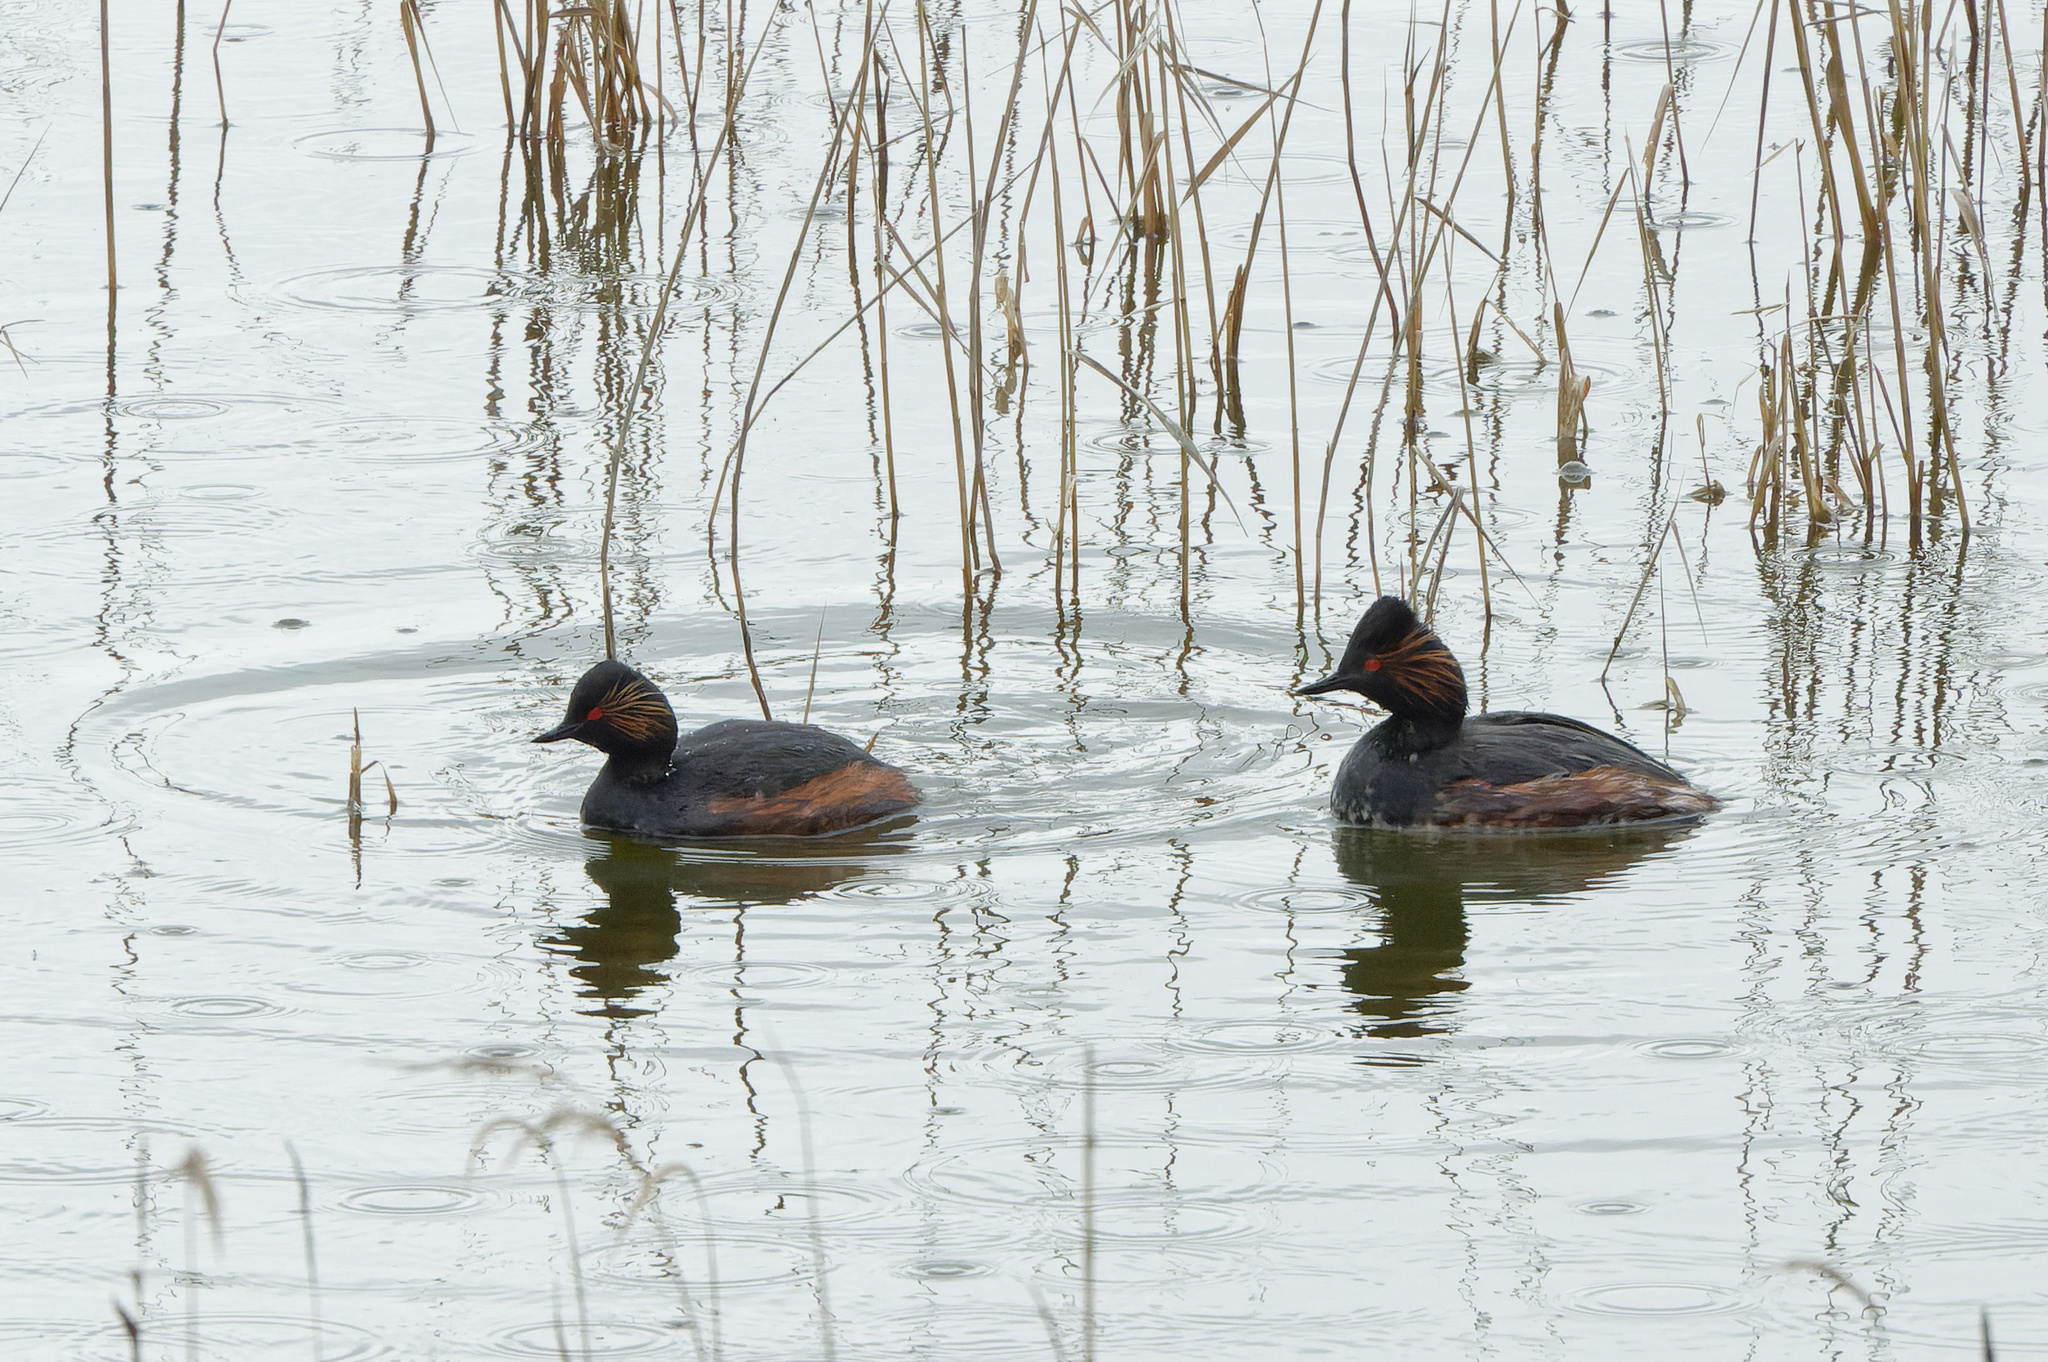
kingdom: Animalia
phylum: Chordata
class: Aves
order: Podicipediformes
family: Podicipedidae
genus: Podiceps
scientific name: Podiceps nigricollis
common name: Black-necked grebe
